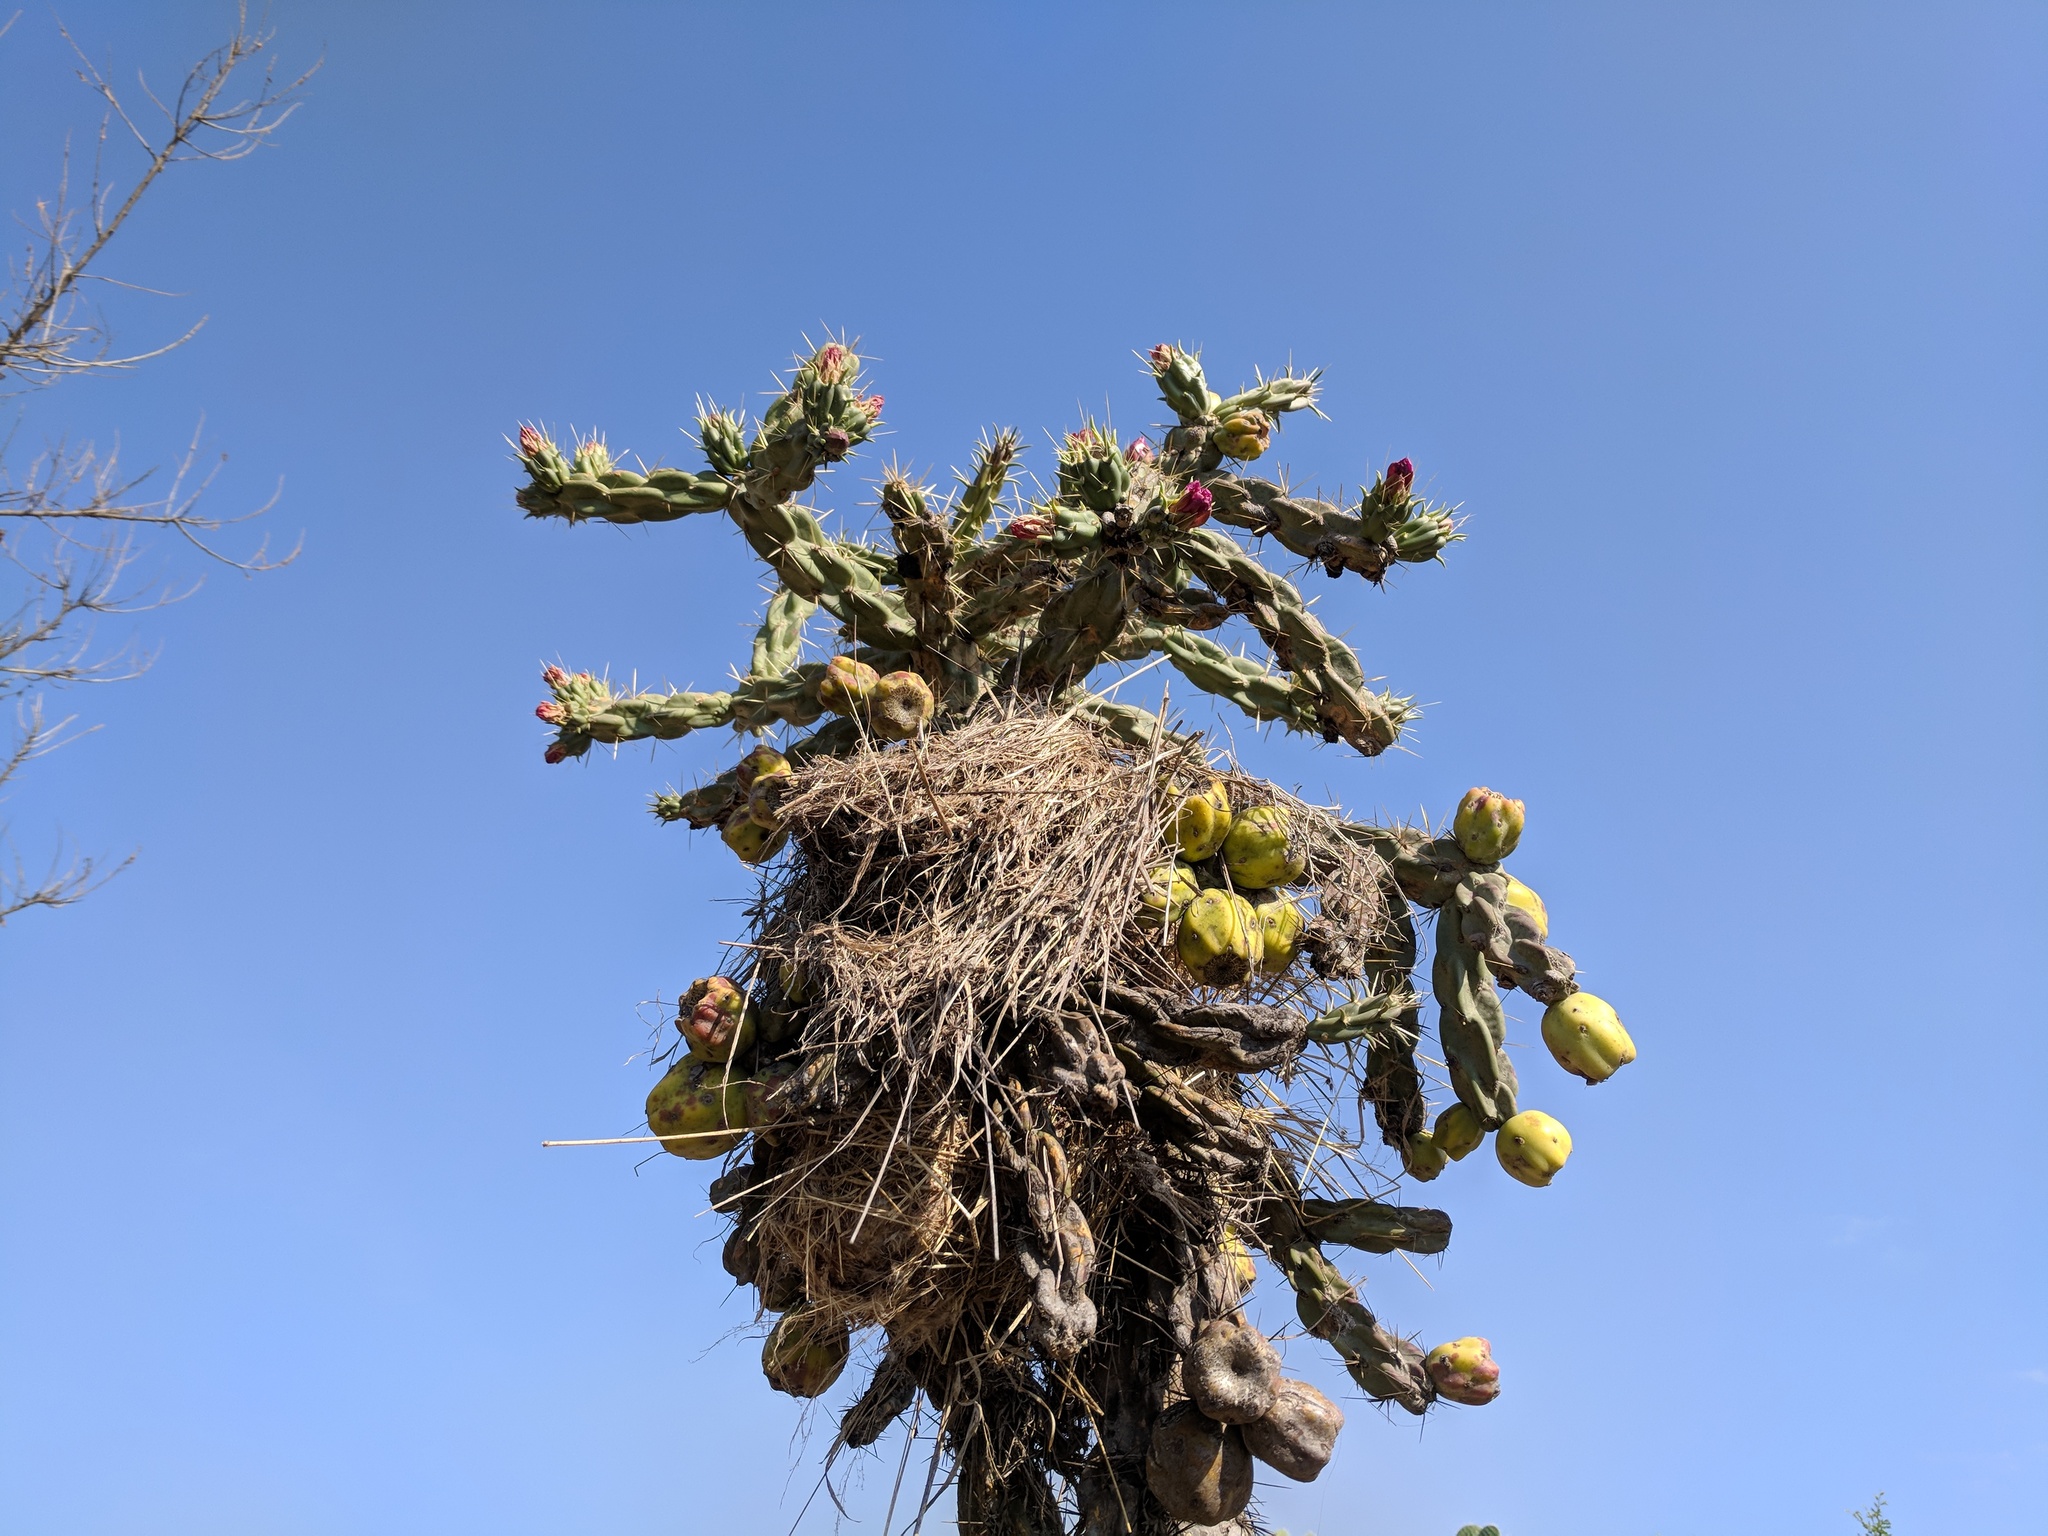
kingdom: Plantae
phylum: Tracheophyta
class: Magnoliopsida
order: Caryophyllales
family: Cactaceae
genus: Cylindropuntia
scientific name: Cylindropuntia imbricata
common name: Candelabrum cactus
